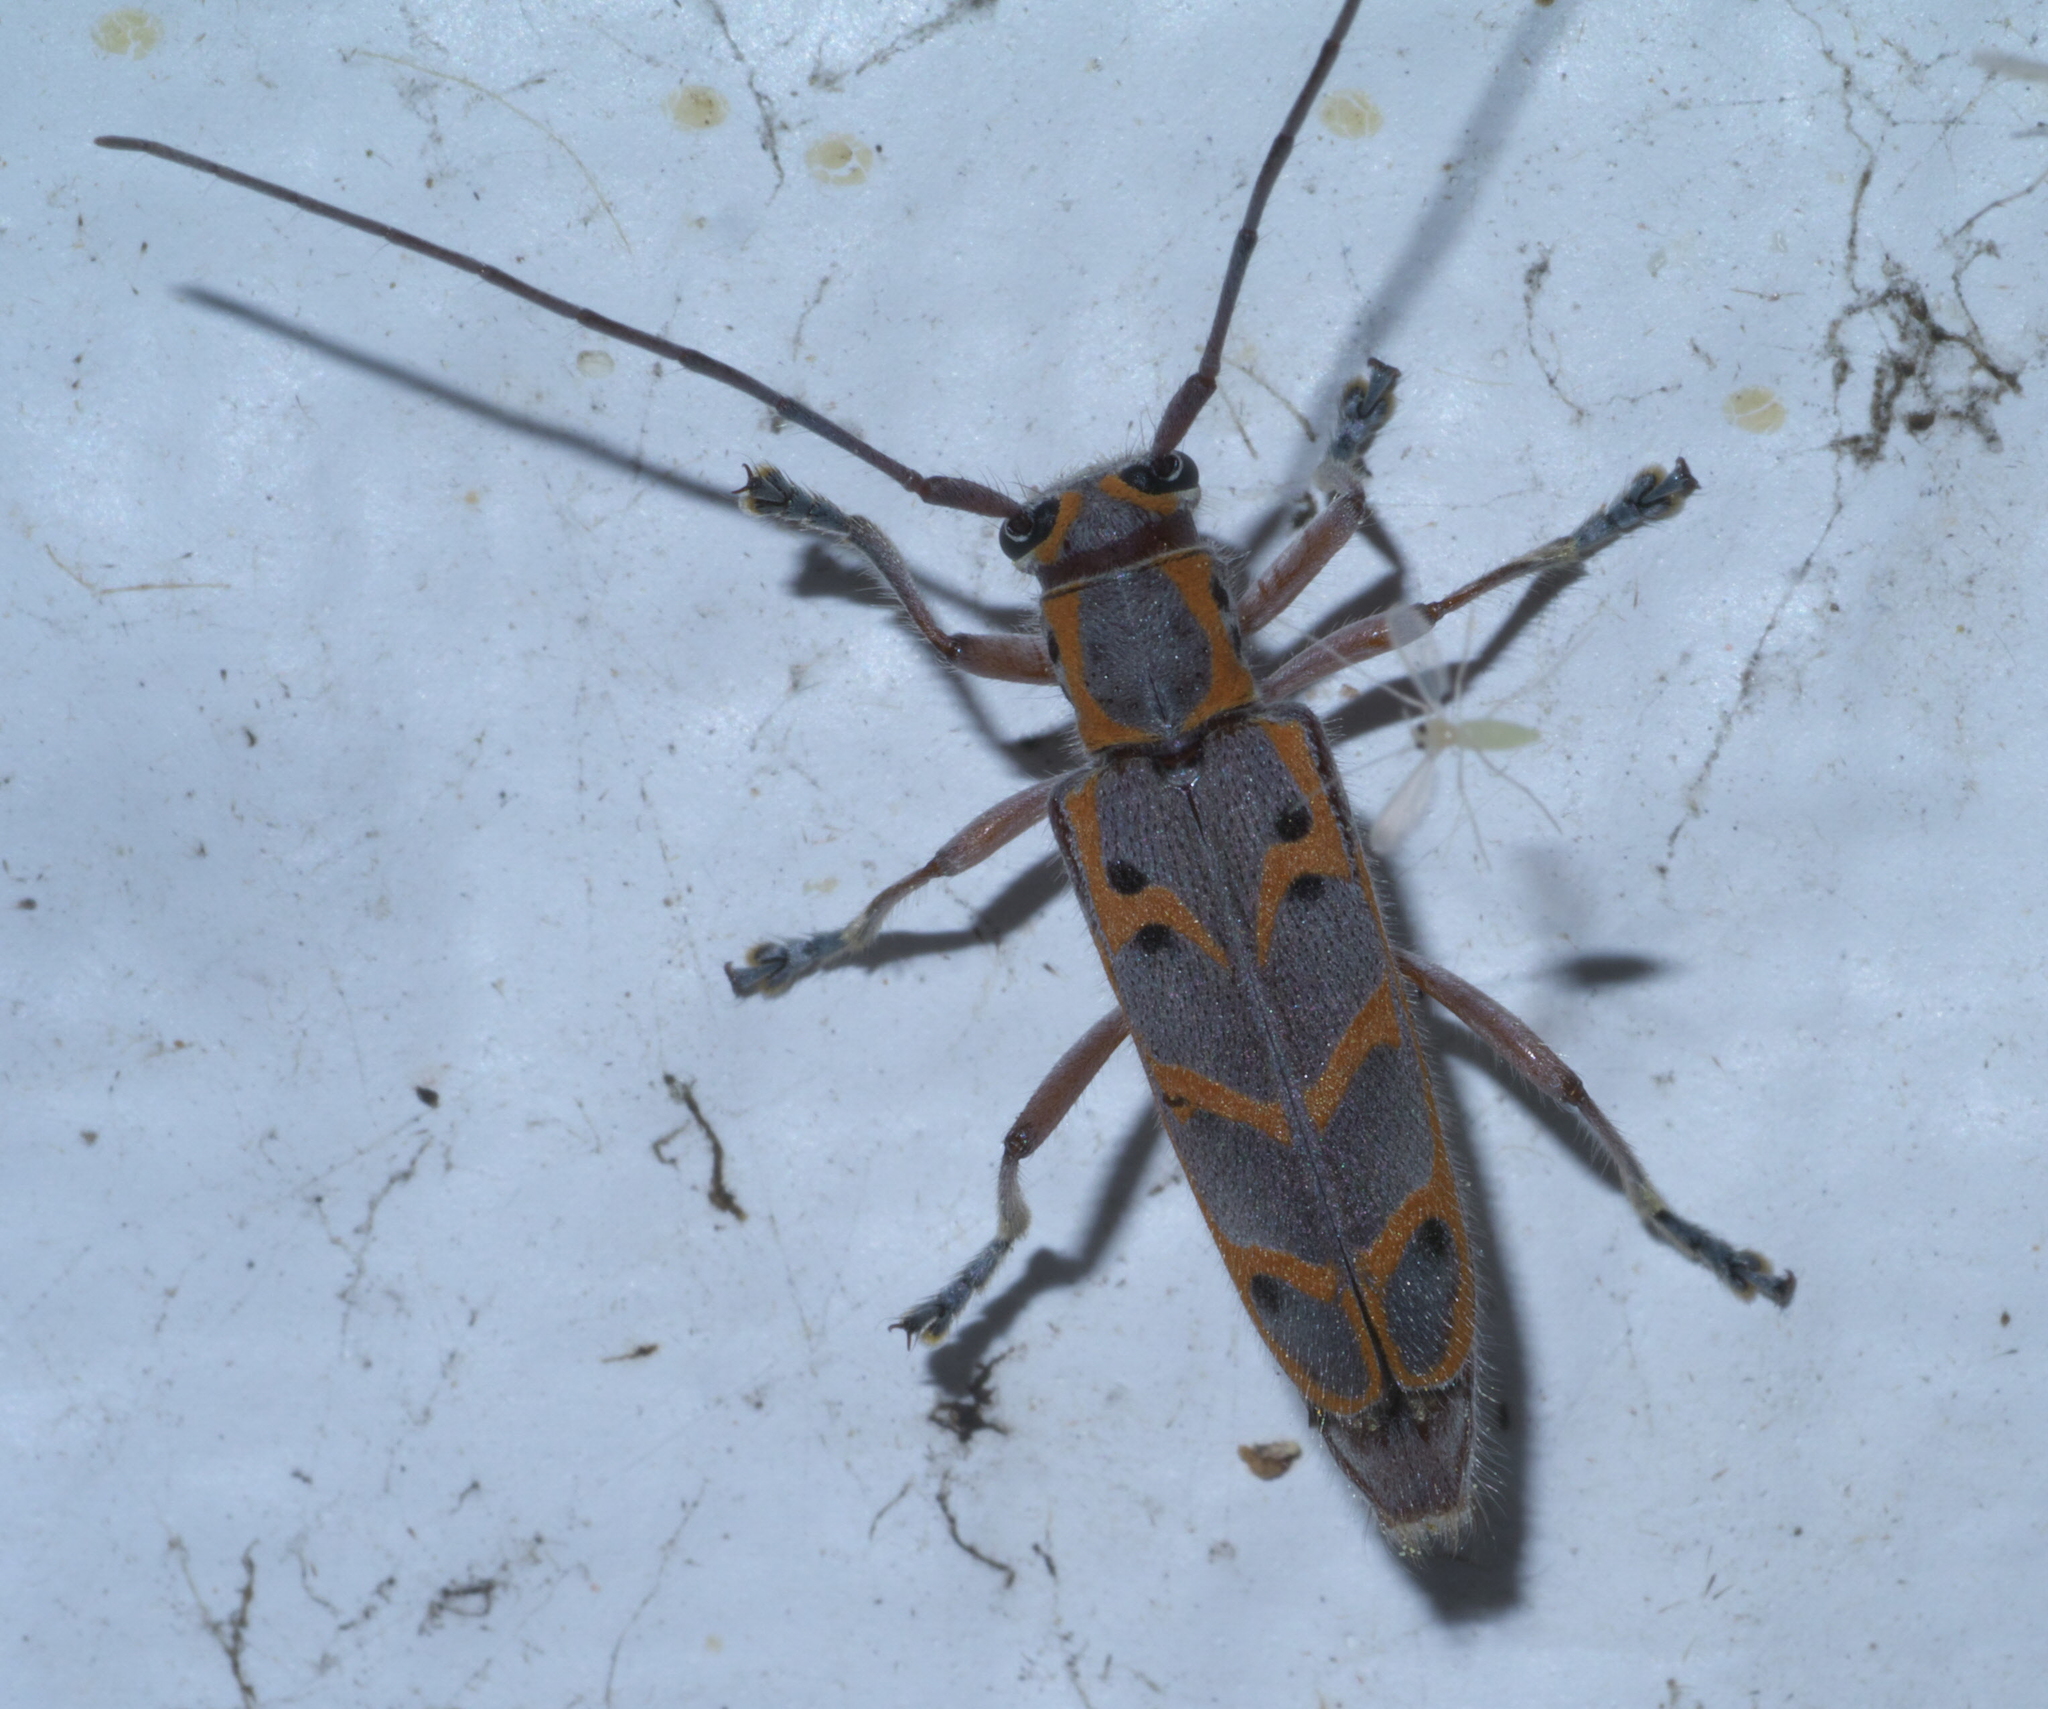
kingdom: Animalia
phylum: Arthropoda
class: Insecta
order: Coleoptera
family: Cerambycidae
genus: Saperda
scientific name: Saperda tridentata
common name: Elm borer
